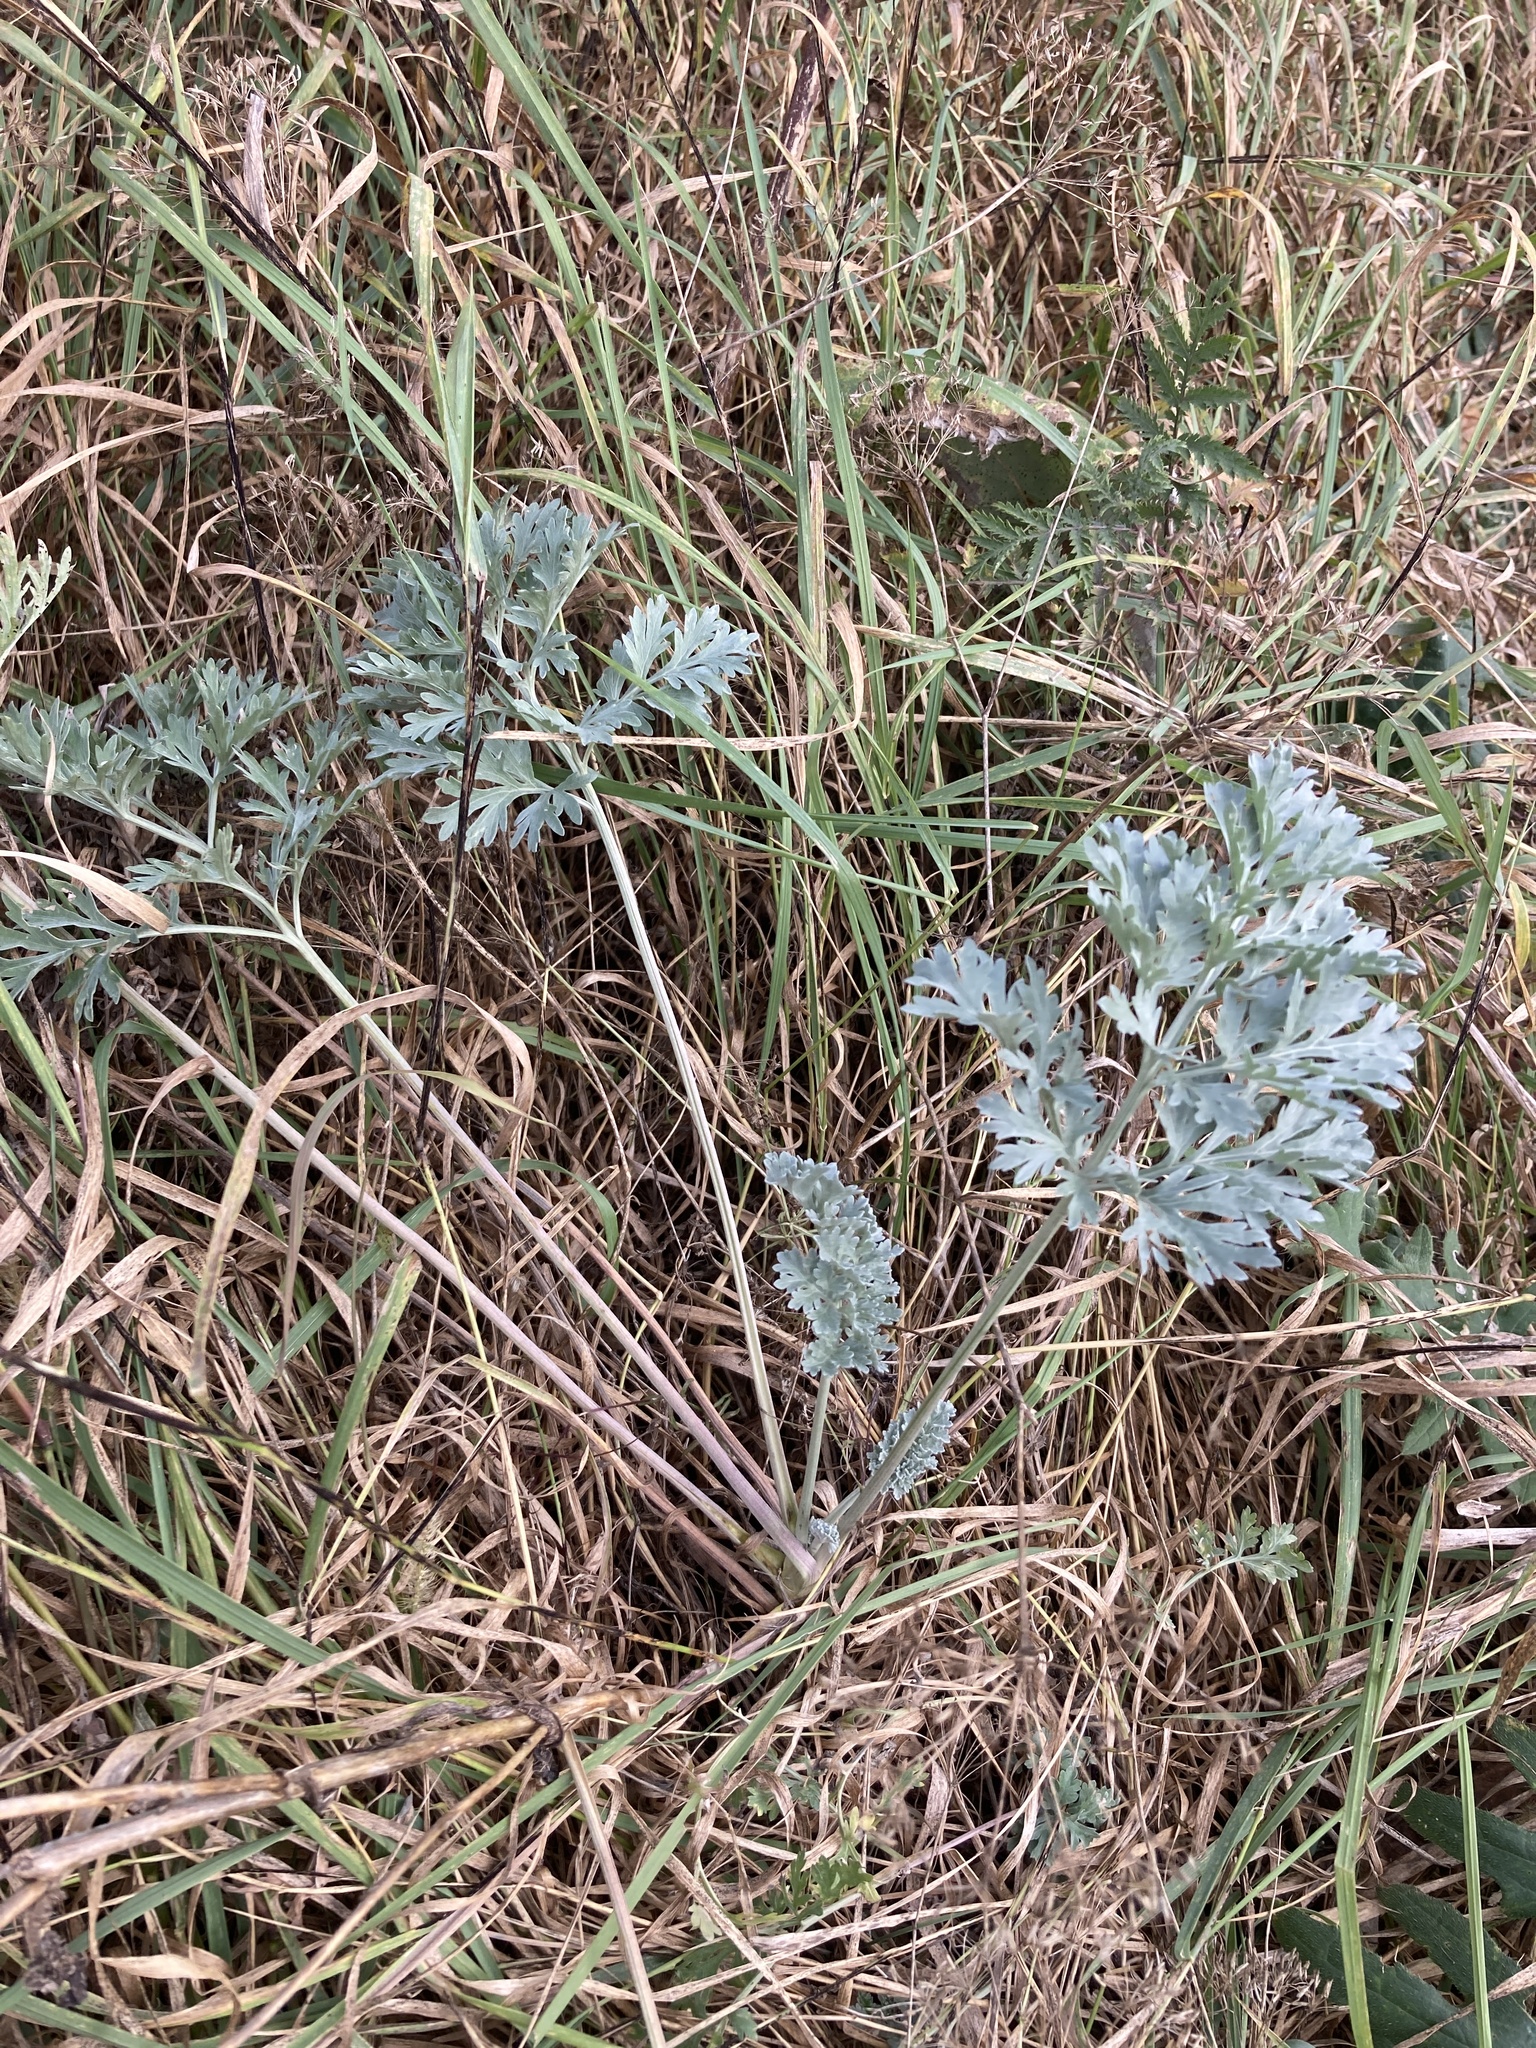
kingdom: Plantae
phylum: Tracheophyta
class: Magnoliopsida
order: Asterales
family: Asteraceae
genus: Artemisia
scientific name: Artemisia absinthium
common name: Wormwood
